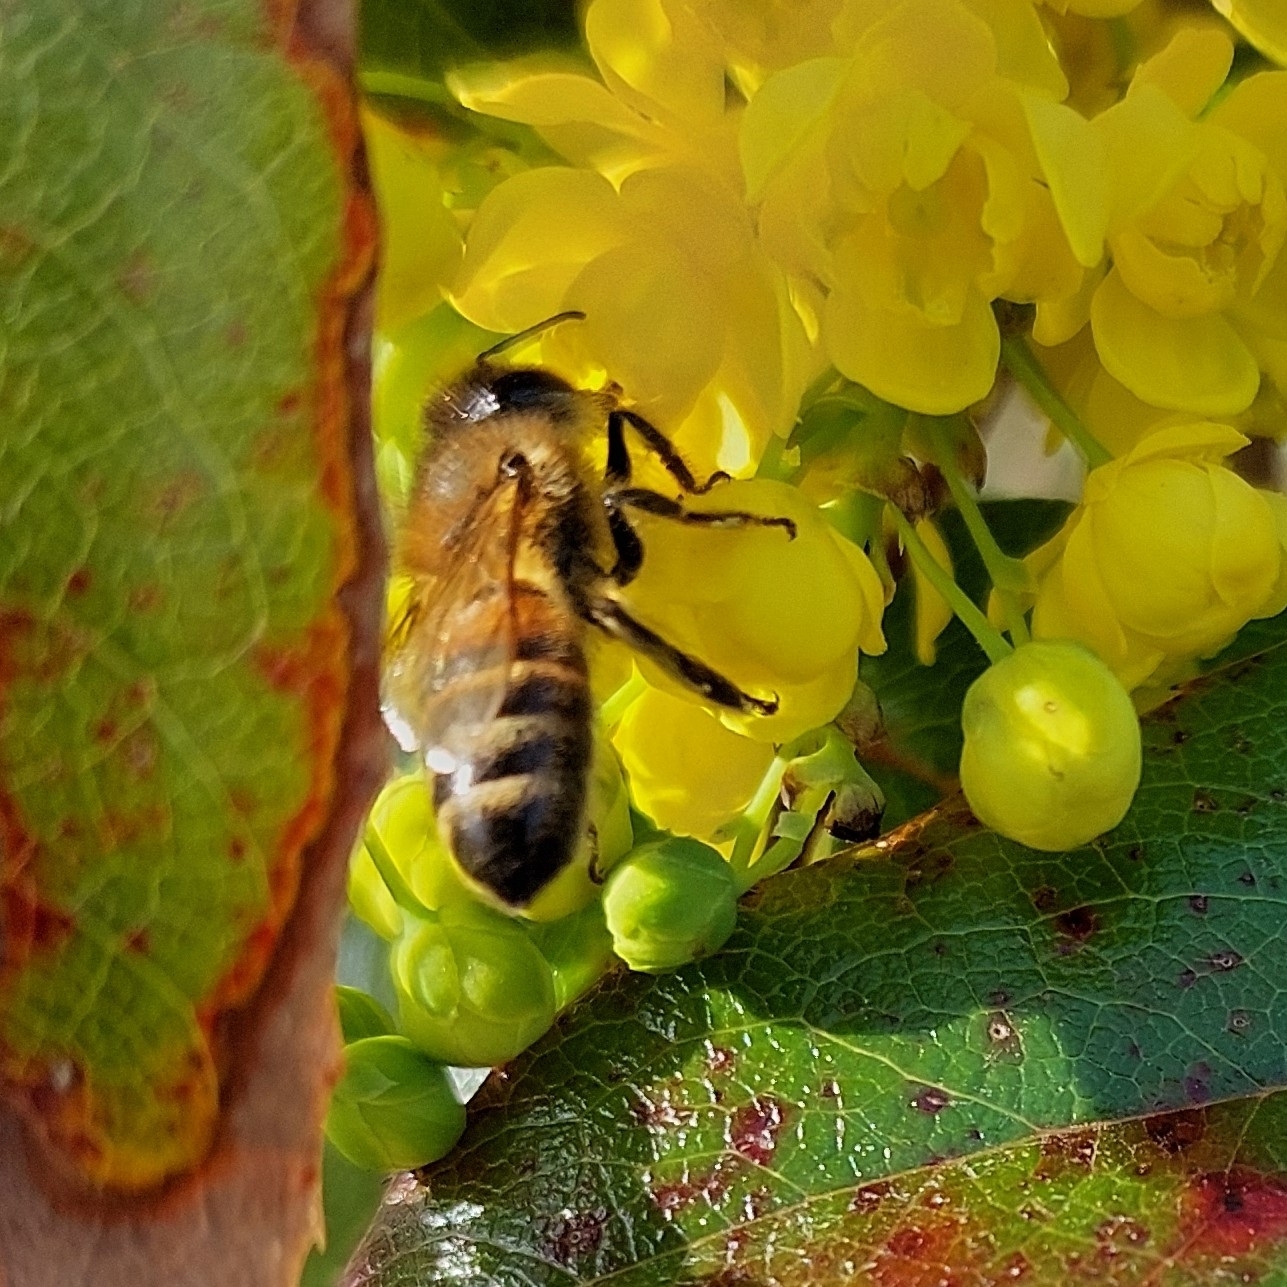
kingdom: Animalia
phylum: Arthropoda
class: Insecta
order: Hymenoptera
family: Apidae
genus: Apis
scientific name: Apis mellifera
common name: Honey bee
